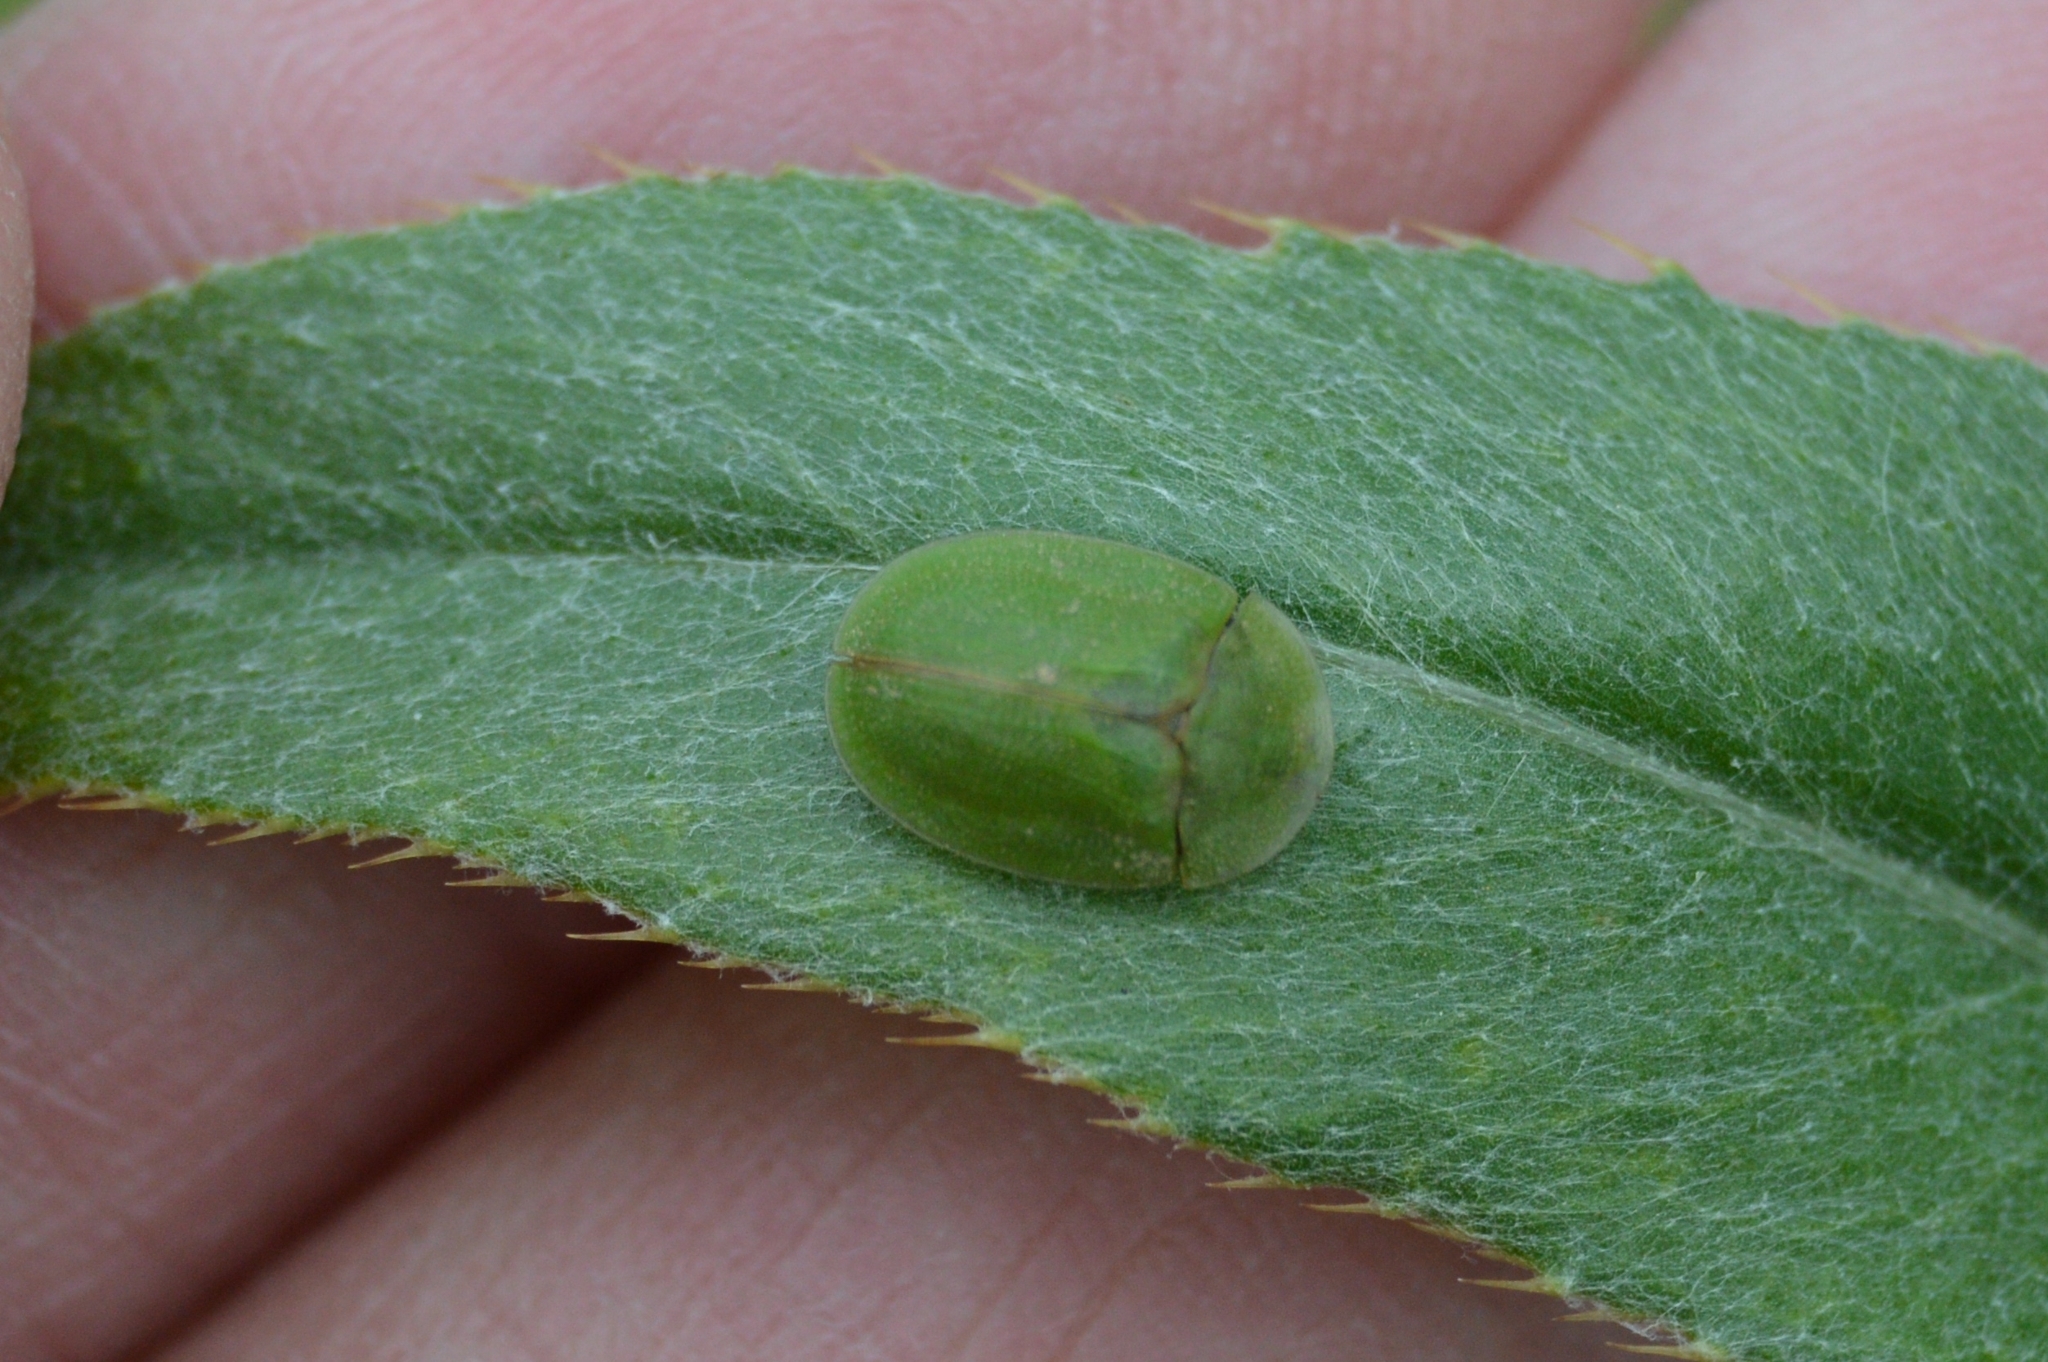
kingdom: Animalia
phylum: Arthropoda
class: Insecta
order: Coleoptera
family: Chrysomelidae
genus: Cassida
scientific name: Cassida rubiginosa
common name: Thistle tortoise beetle
